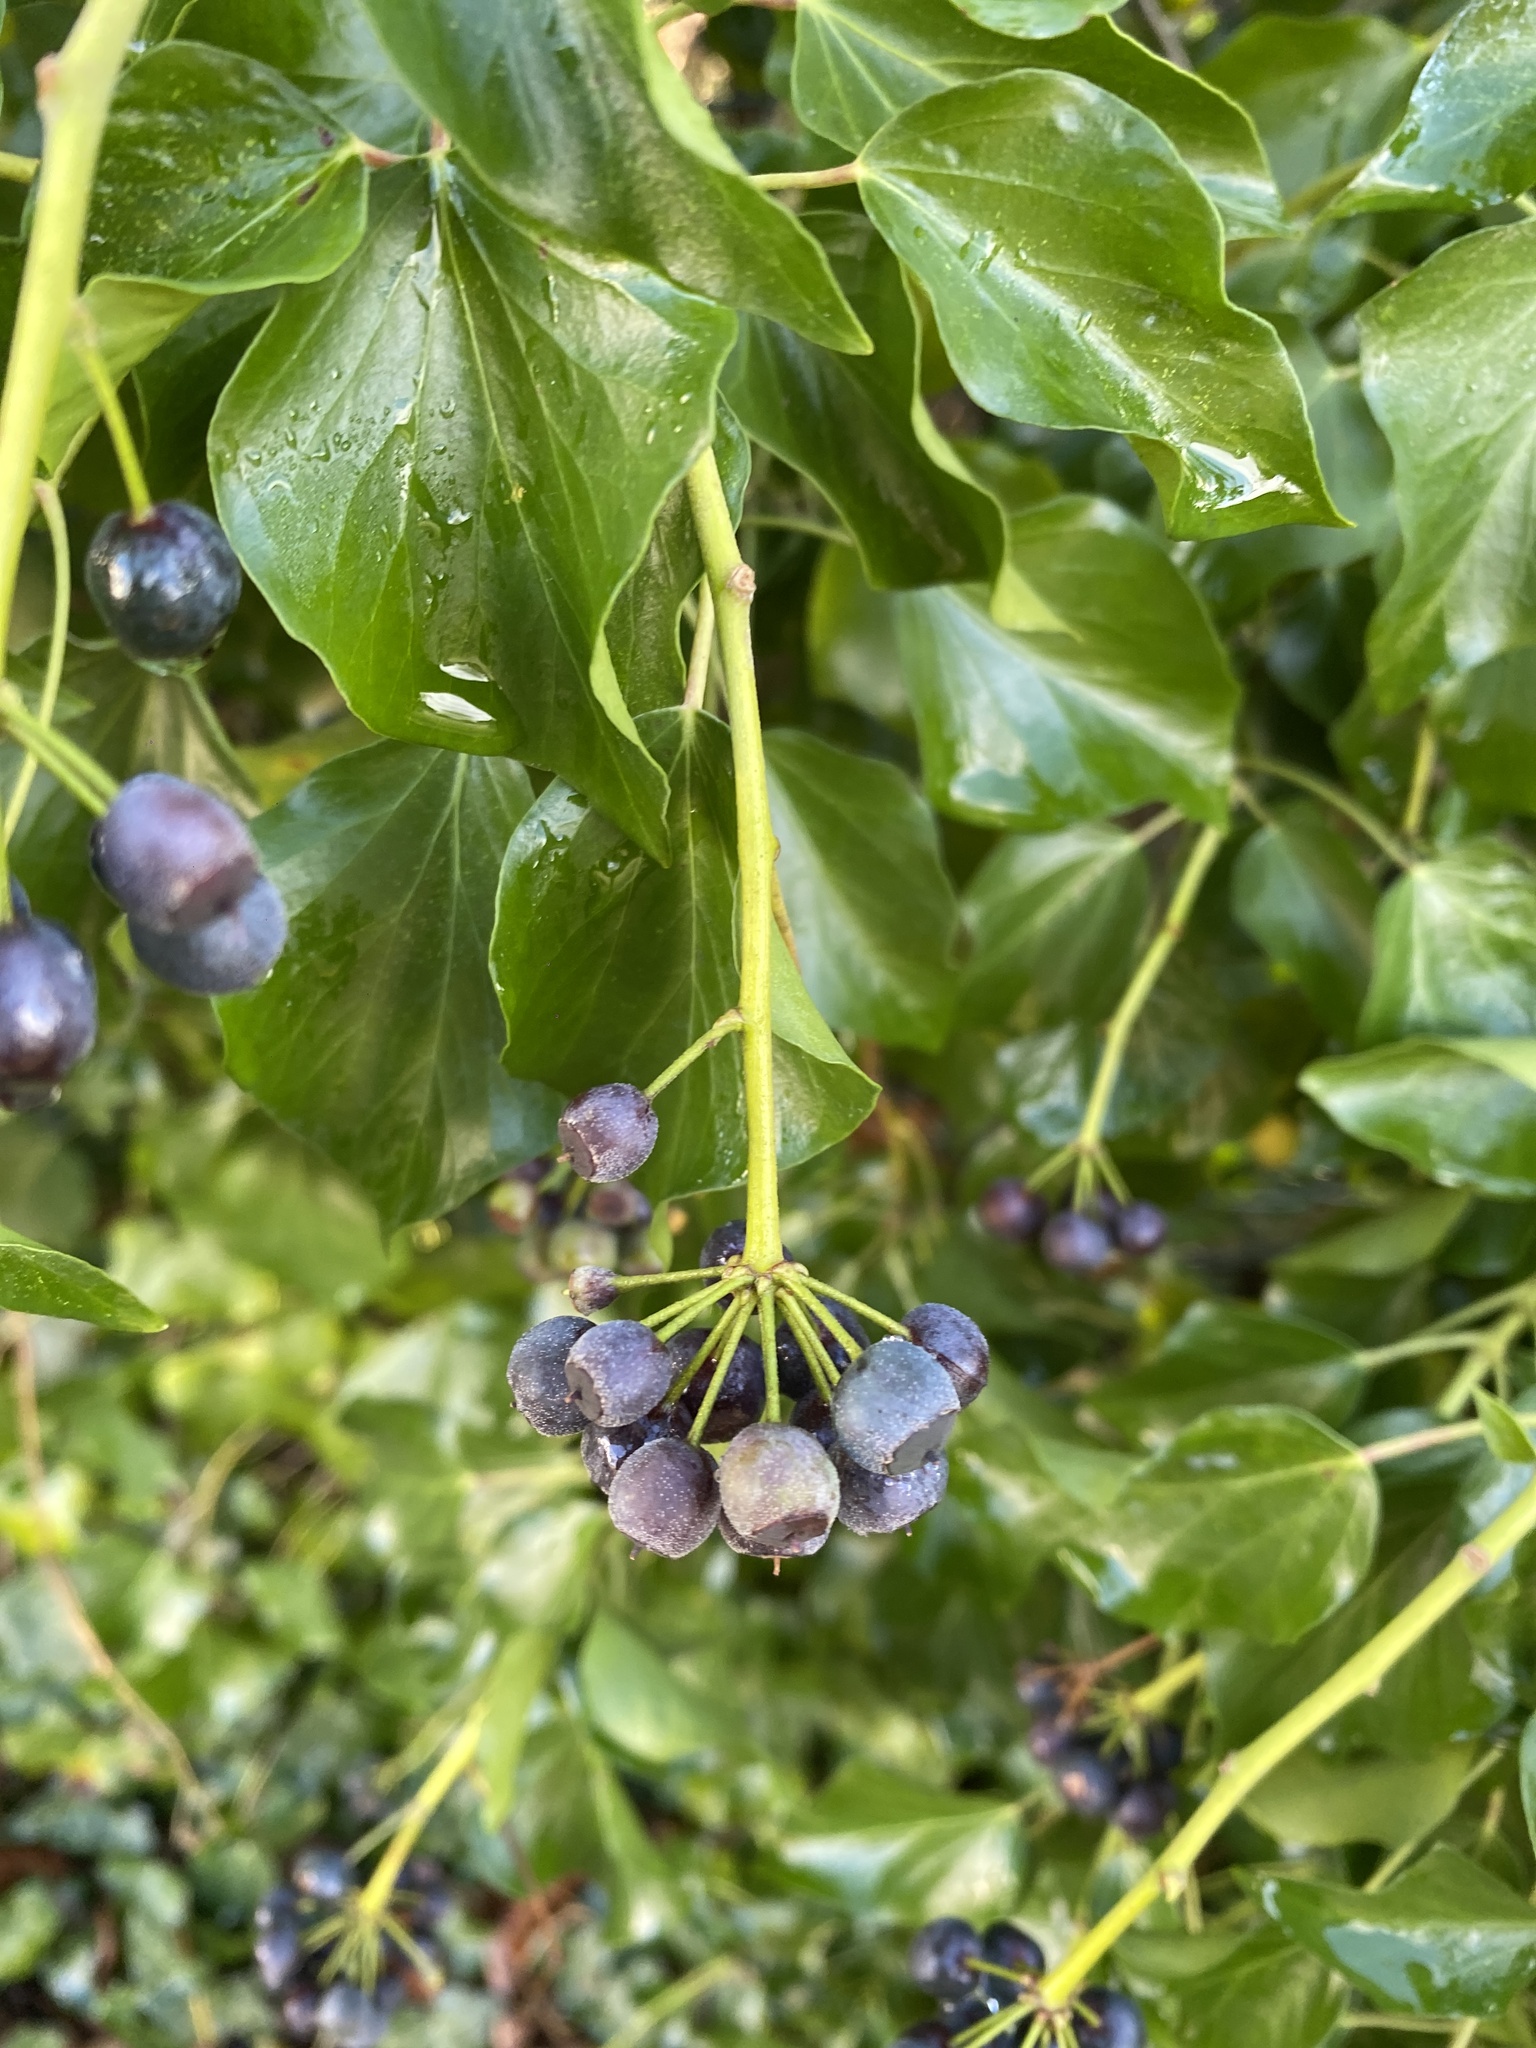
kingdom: Plantae
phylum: Tracheophyta
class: Magnoliopsida
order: Apiales
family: Araliaceae
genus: Hedera
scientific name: Hedera helix
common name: Ivy
